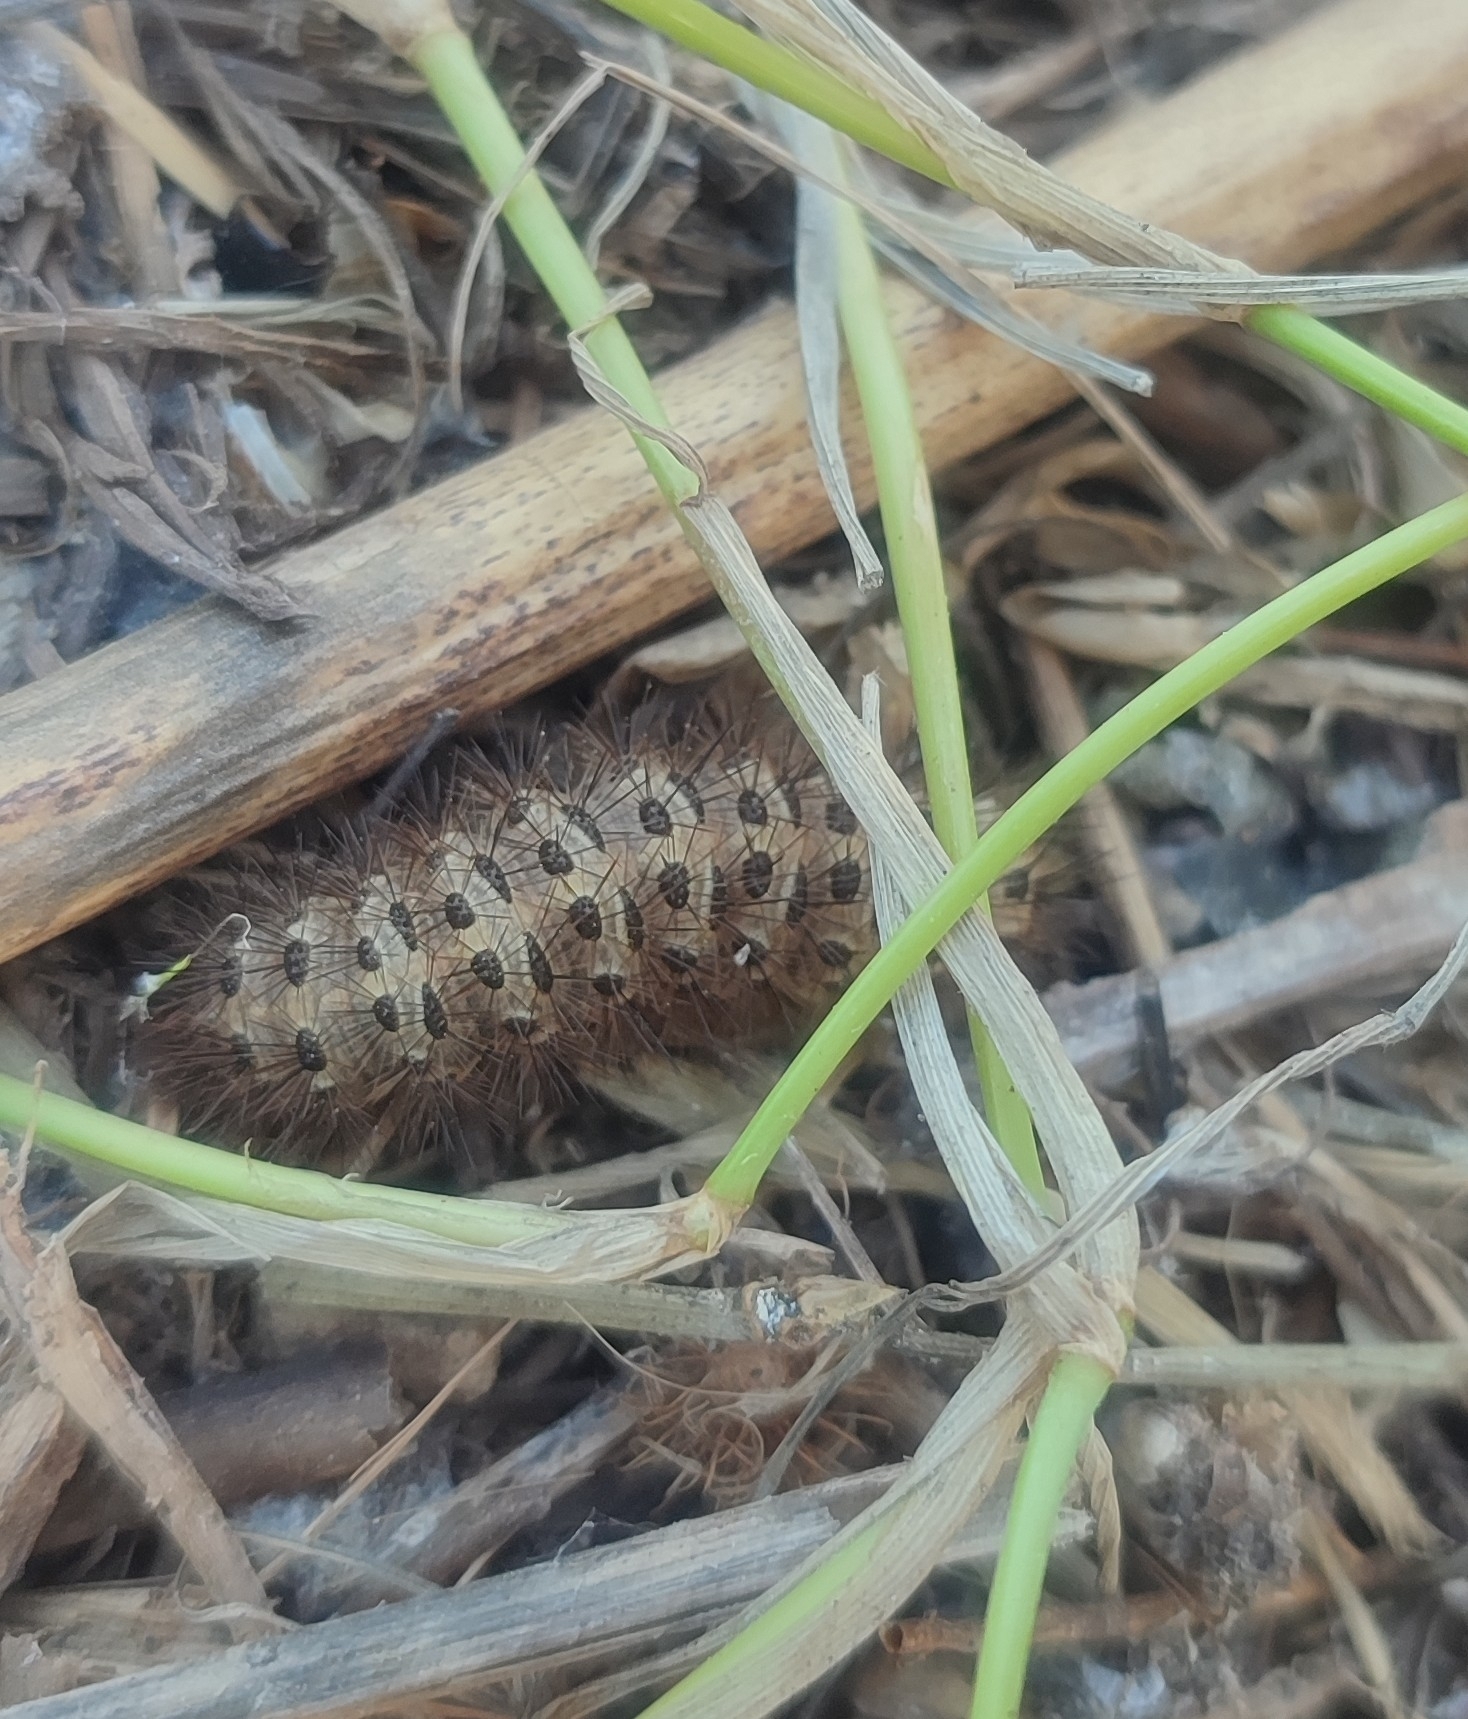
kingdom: Animalia
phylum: Arthropoda
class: Insecta
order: Lepidoptera
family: Erebidae
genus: Cymbalophora
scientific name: Cymbalophora pudica
